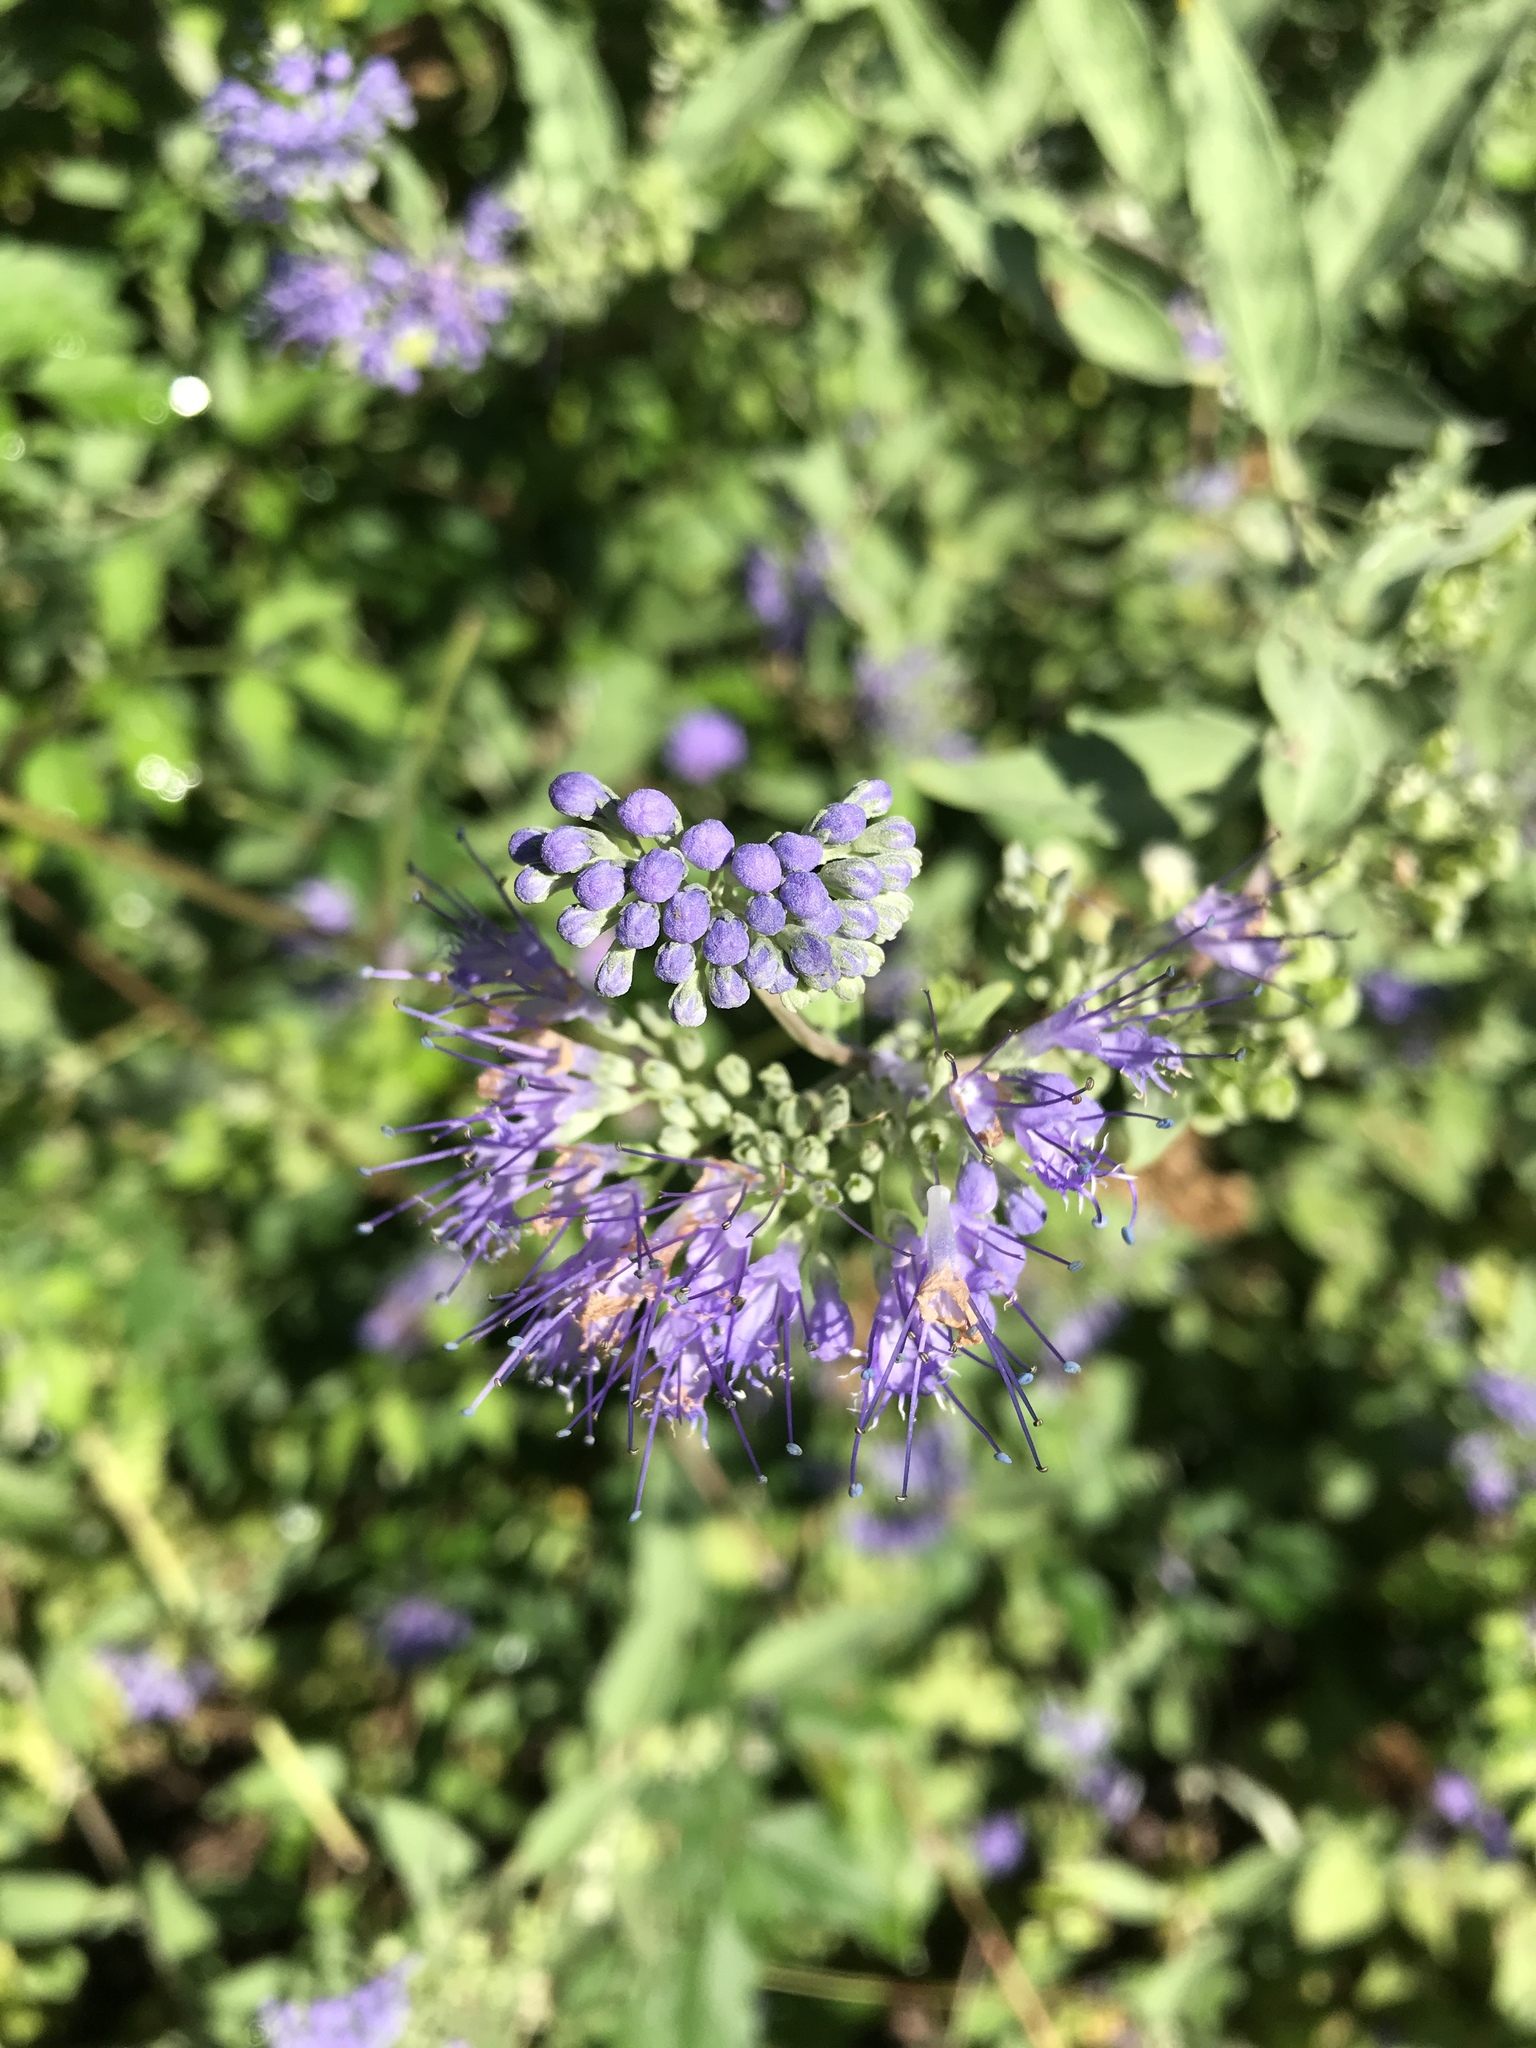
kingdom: Animalia
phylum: Arthropoda
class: Insecta
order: Hymenoptera
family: Apidae
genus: Bombus
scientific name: Bombus impatiens
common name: Common eastern bumble bee
